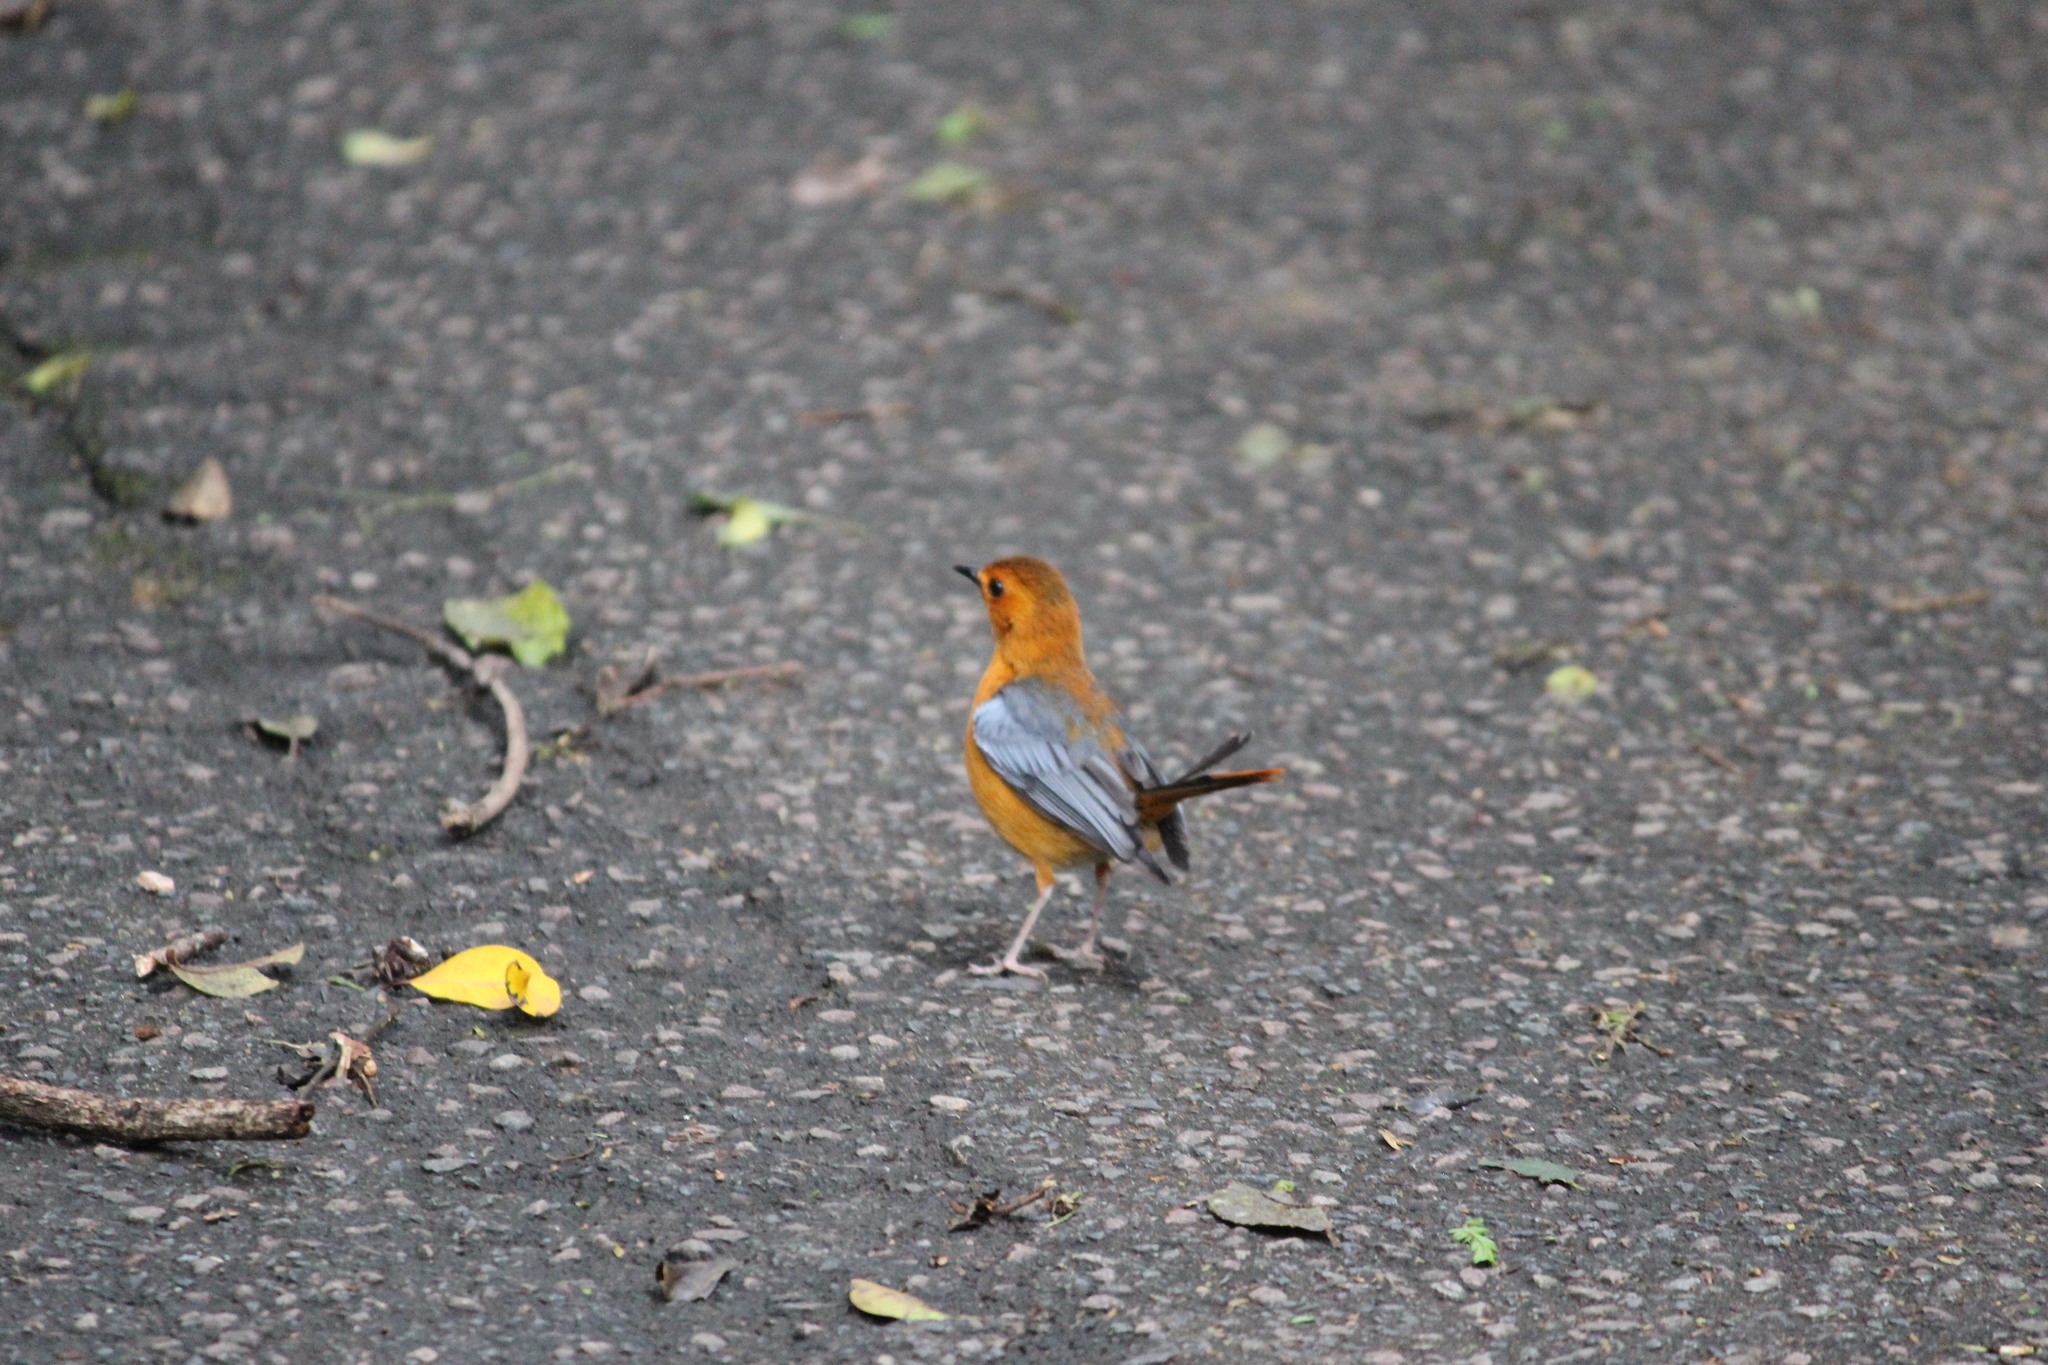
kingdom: Animalia
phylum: Chordata
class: Aves
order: Passeriformes
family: Muscicapidae
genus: Cossypha
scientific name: Cossypha natalensis
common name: Red-capped robin-chat
